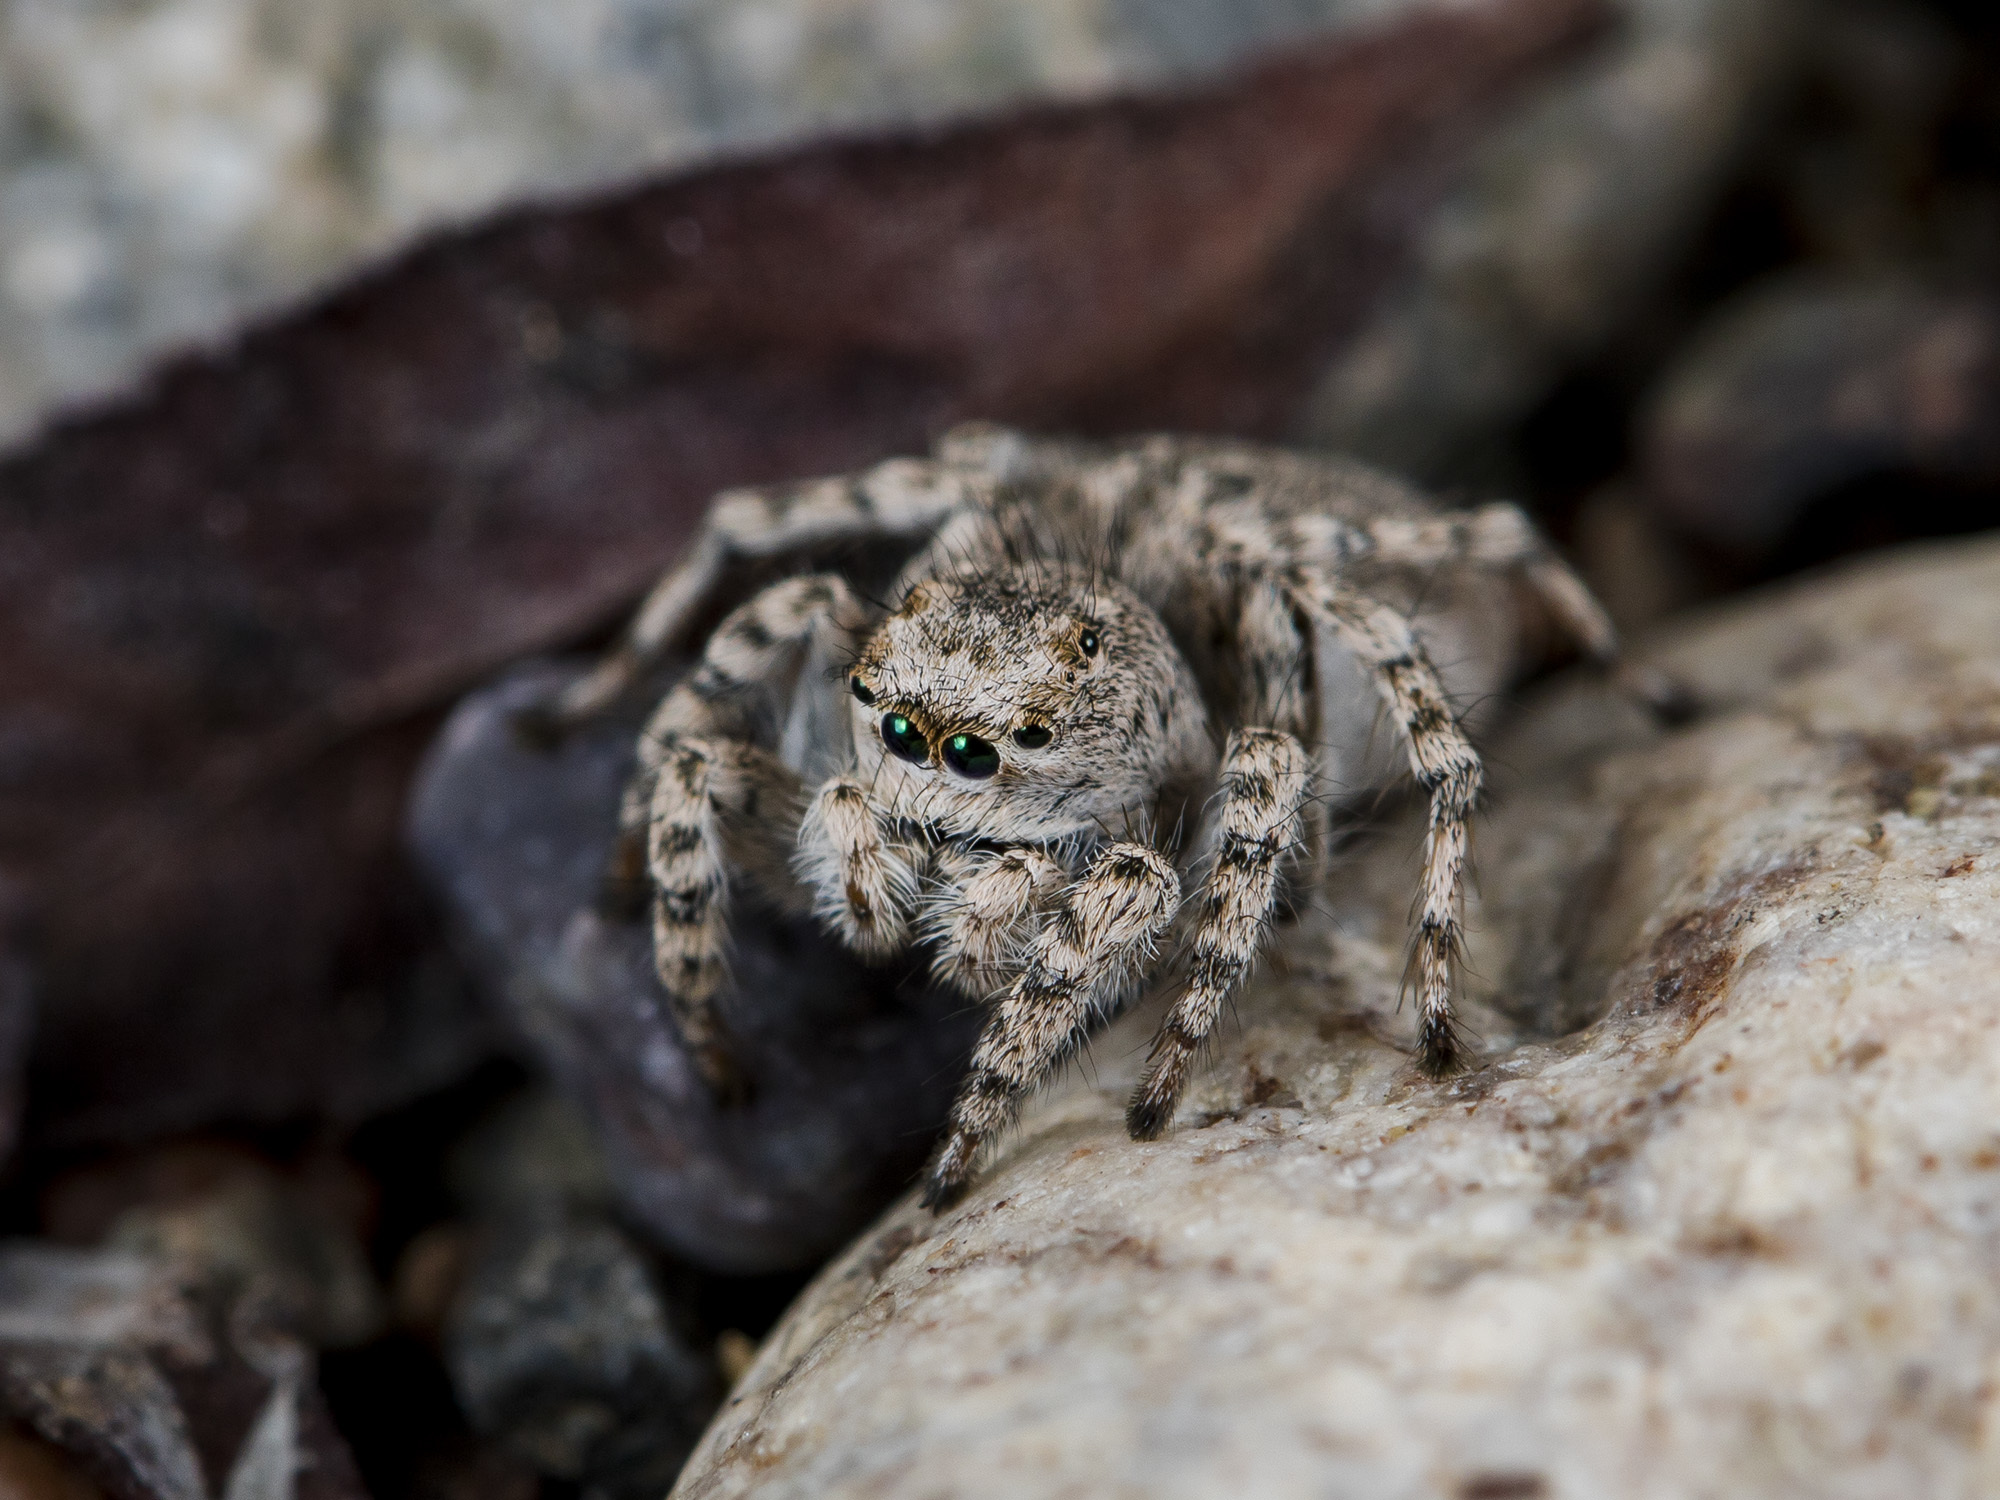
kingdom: Animalia
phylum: Arthropoda
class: Arachnida
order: Araneae
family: Salticidae
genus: Aelurillus
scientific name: Aelurillus dubatolovi
